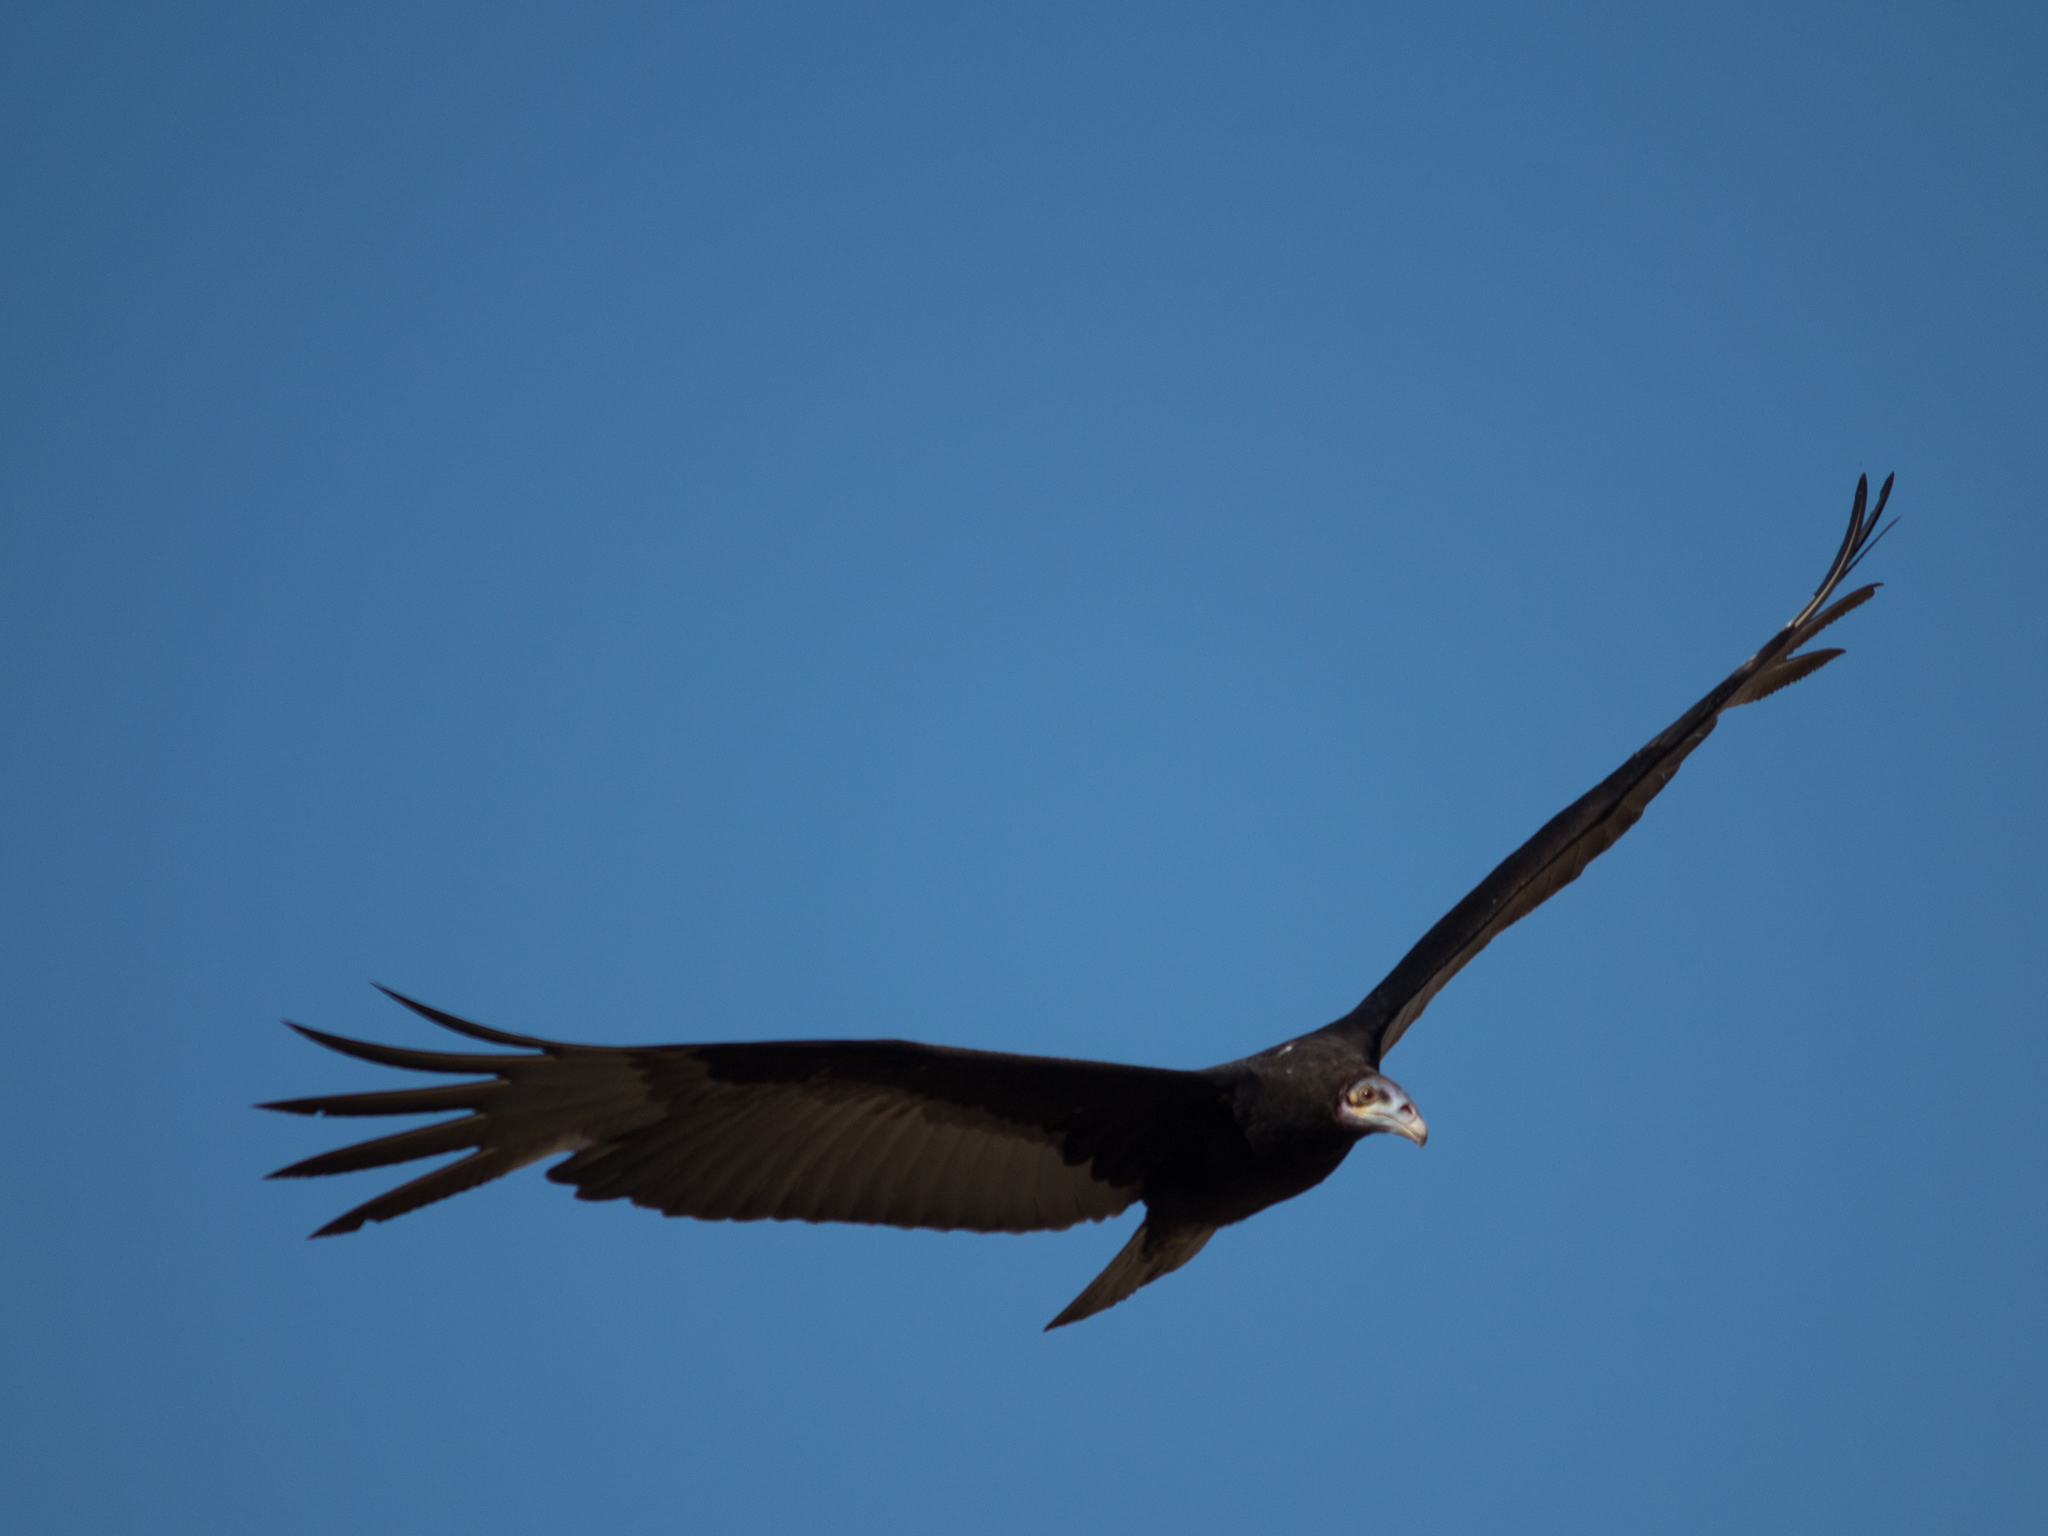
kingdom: Animalia
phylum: Chordata
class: Aves
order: Accipitriformes
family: Cathartidae
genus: Cathartes
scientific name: Cathartes burrovianus
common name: Lesser yellow-headed vulture
